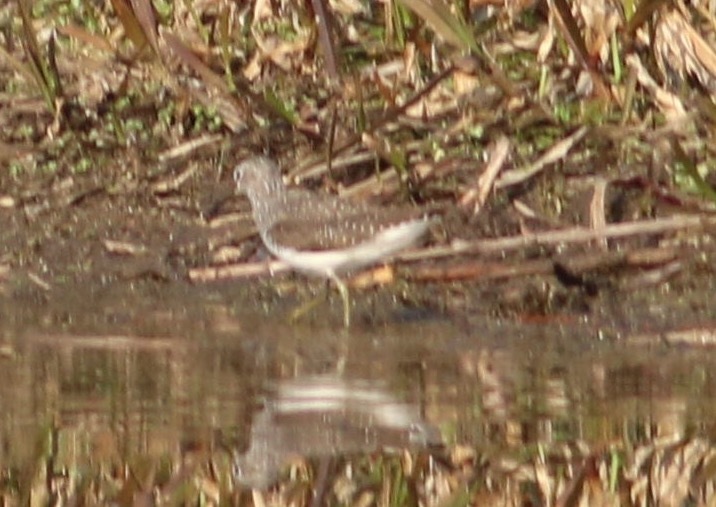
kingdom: Animalia
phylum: Chordata
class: Aves
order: Charadriiformes
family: Scolopacidae
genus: Tringa
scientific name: Tringa glareola
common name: Wood sandpiper
